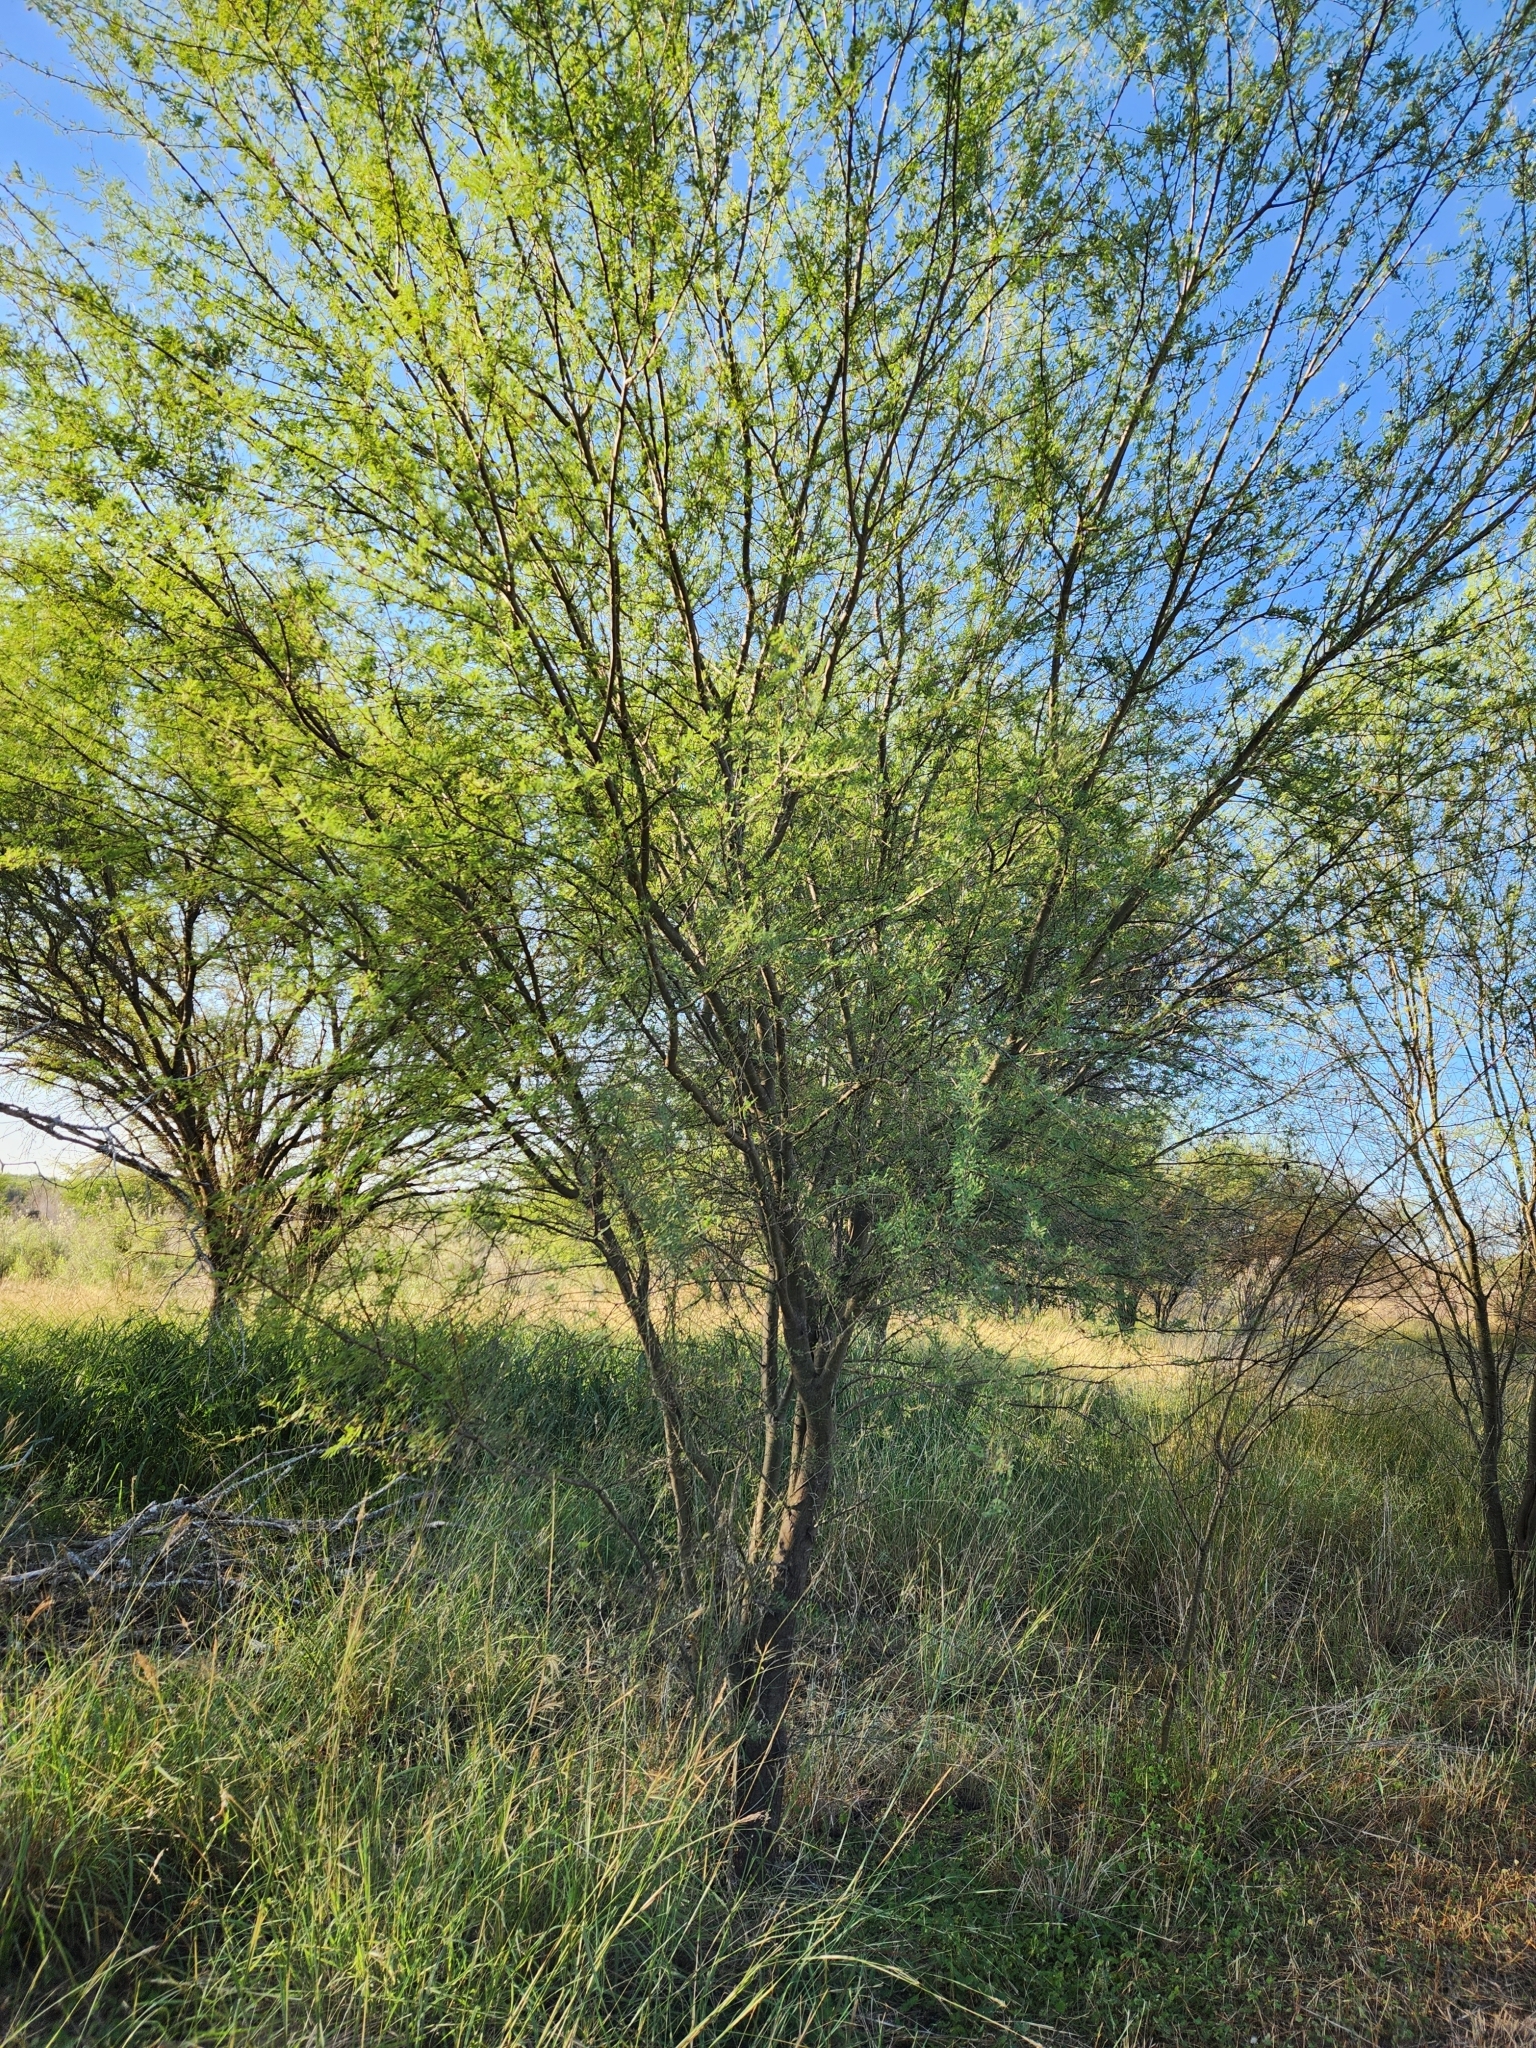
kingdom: Plantae
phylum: Tracheophyta
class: Magnoliopsida
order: Fabales
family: Fabaceae
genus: Vachellia
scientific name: Vachellia farnesiana
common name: Sweet acacia
